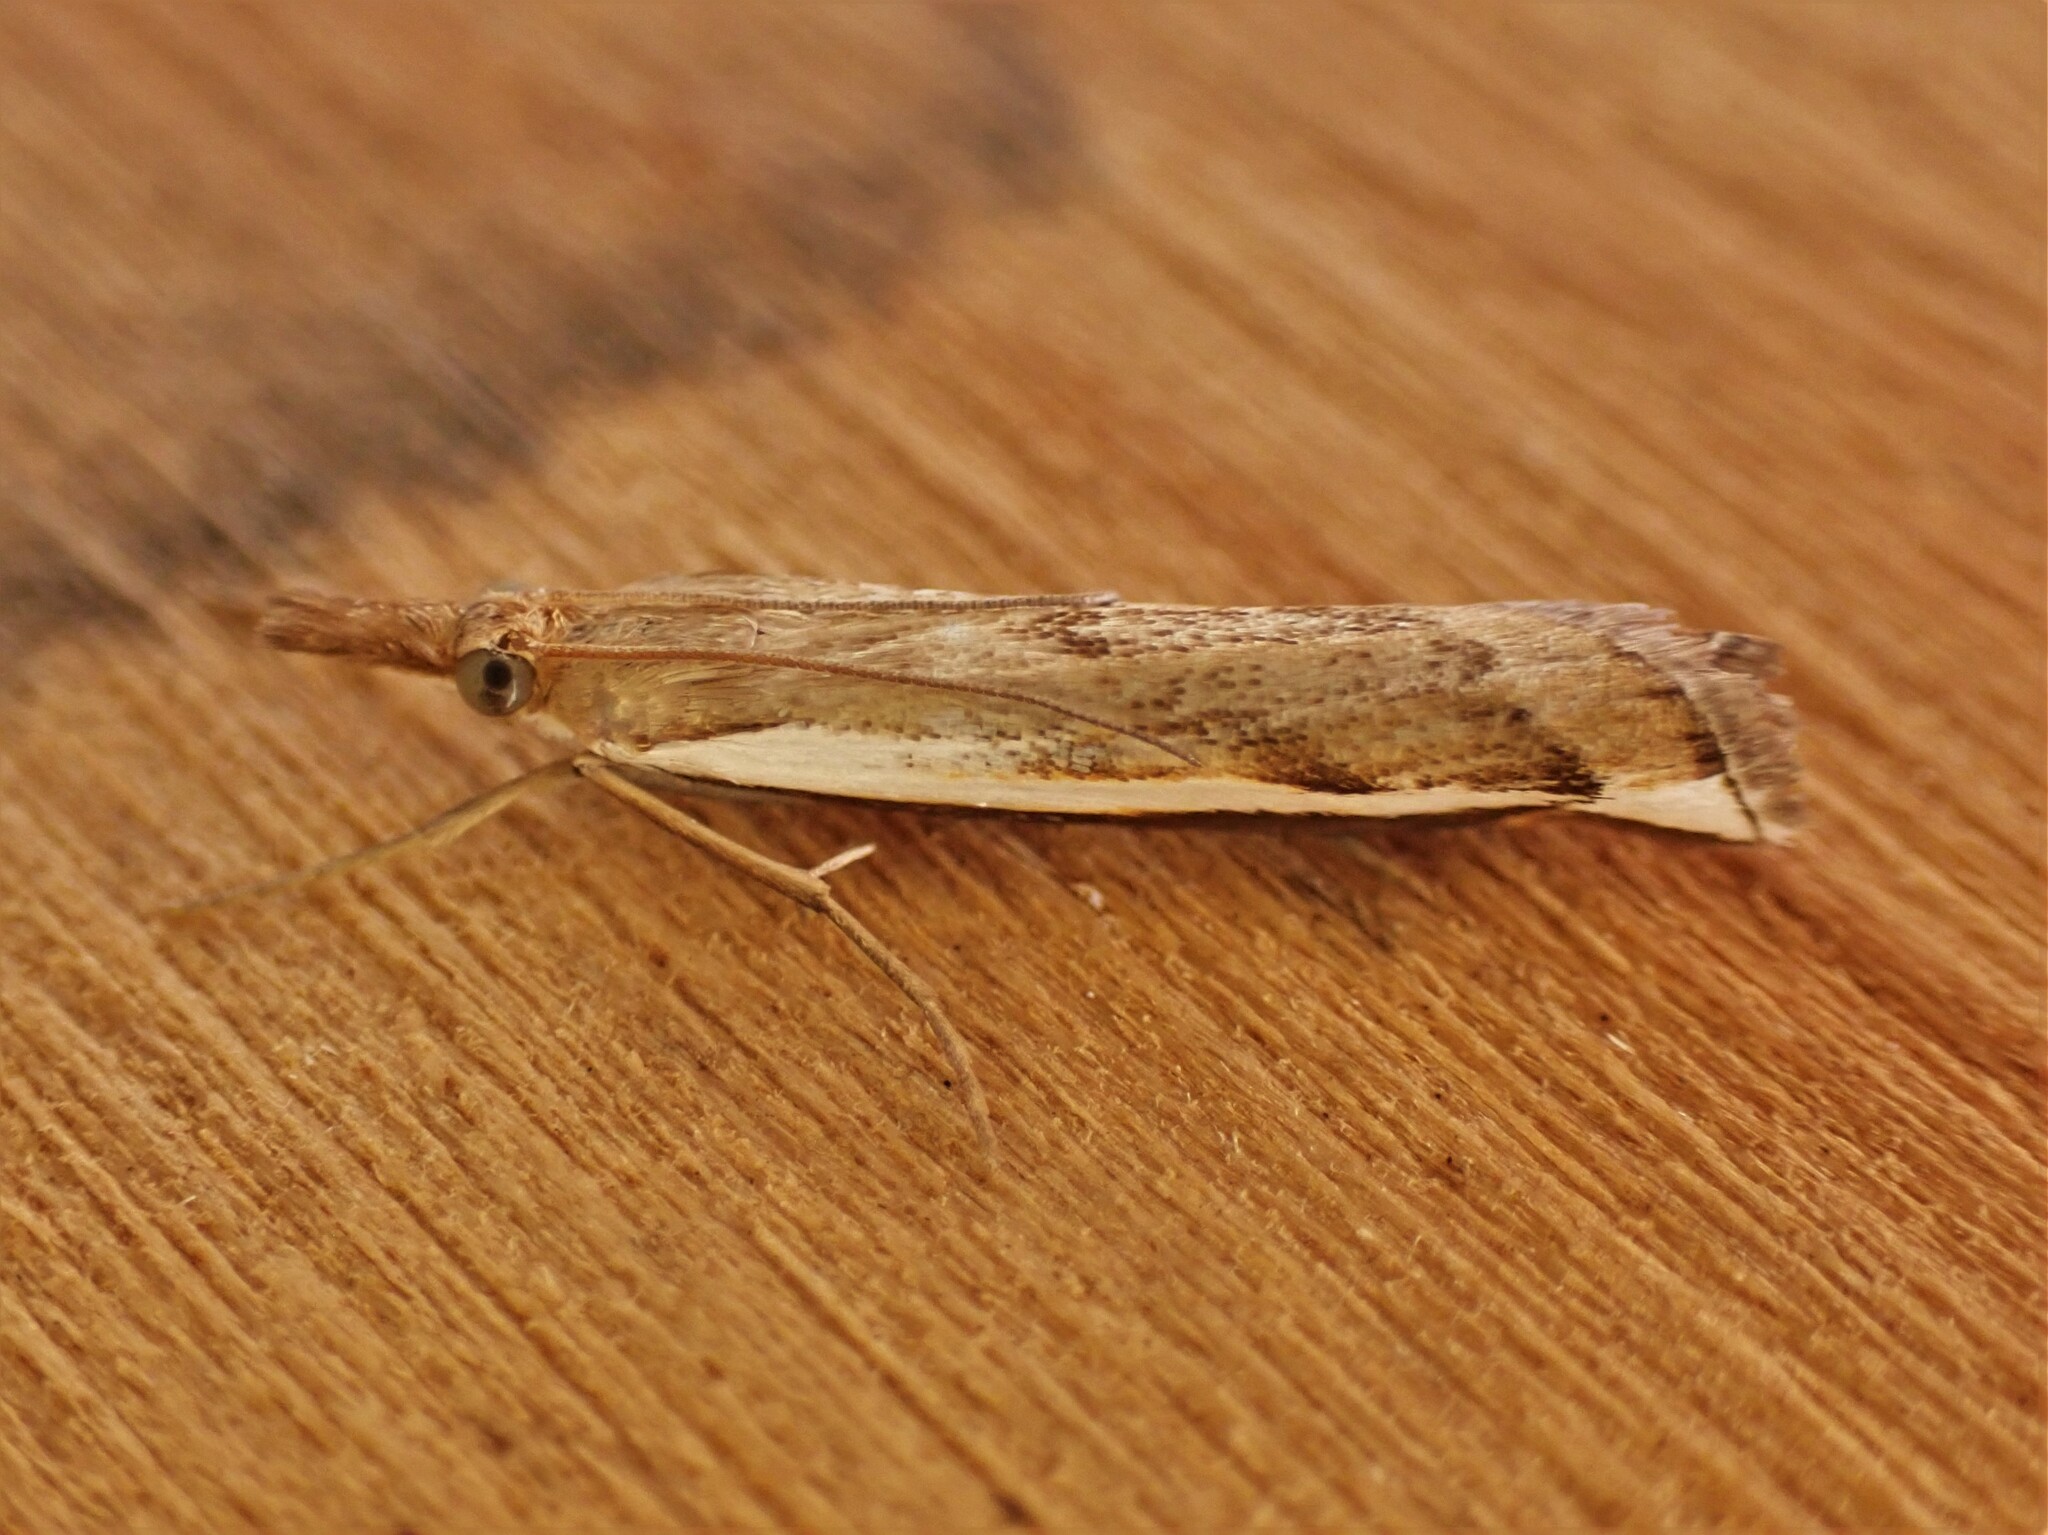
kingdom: Animalia
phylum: Arthropoda
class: Insecta
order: Lepidoptera
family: Crambidae
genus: Orocrambus
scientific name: Orocrambus flexuosellus
